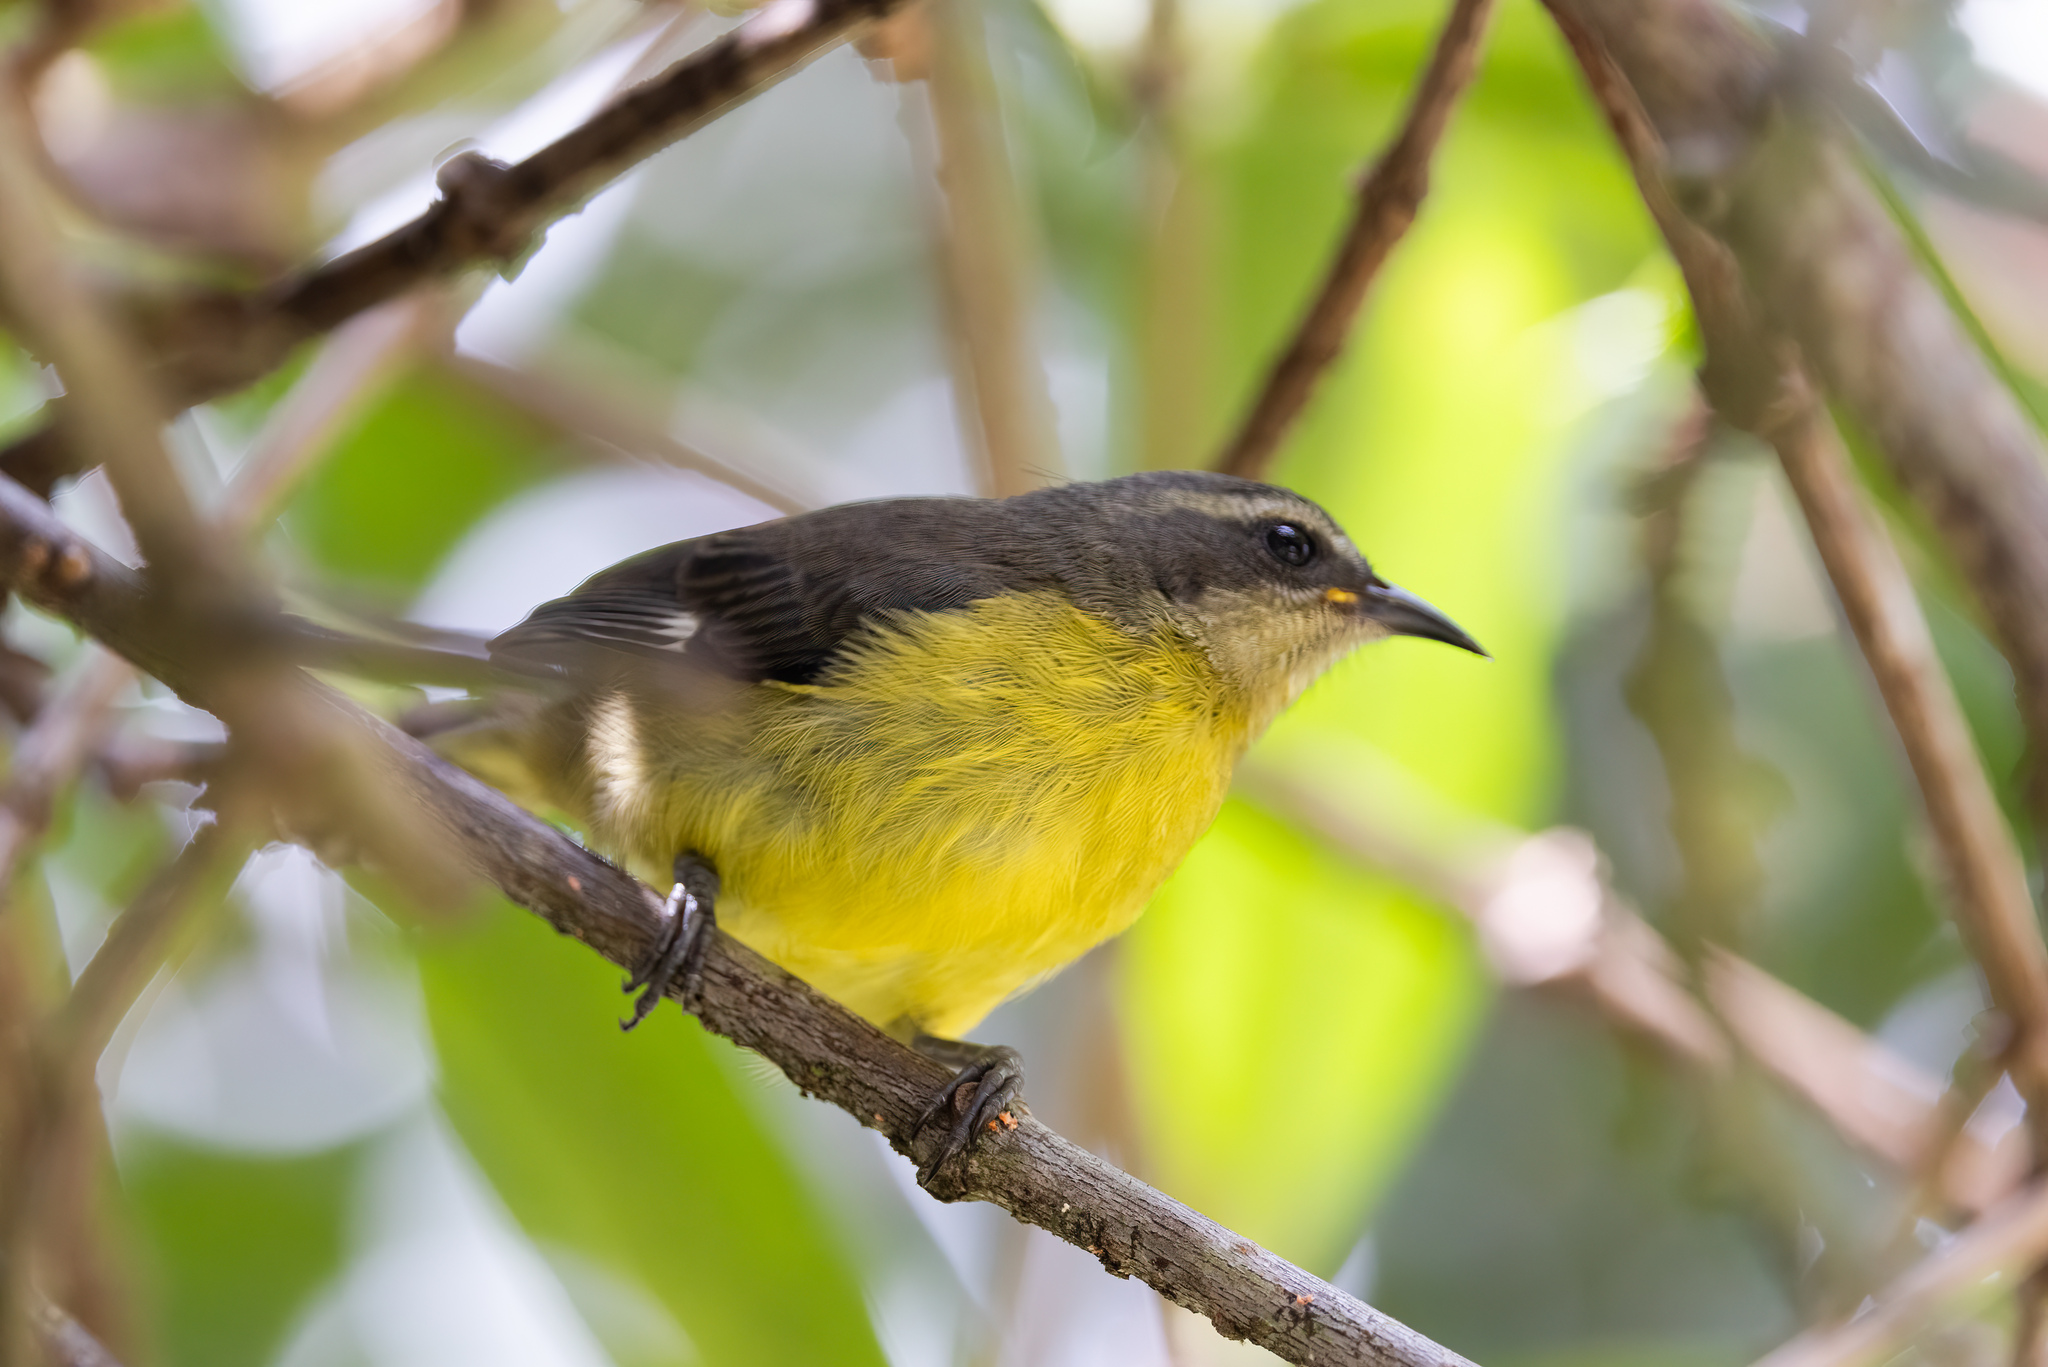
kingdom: Animalia
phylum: Chordata
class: Aves
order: Passeriformes
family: Thraupidae
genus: Coereba
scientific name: Coereba flaveola
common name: Bananaquit
